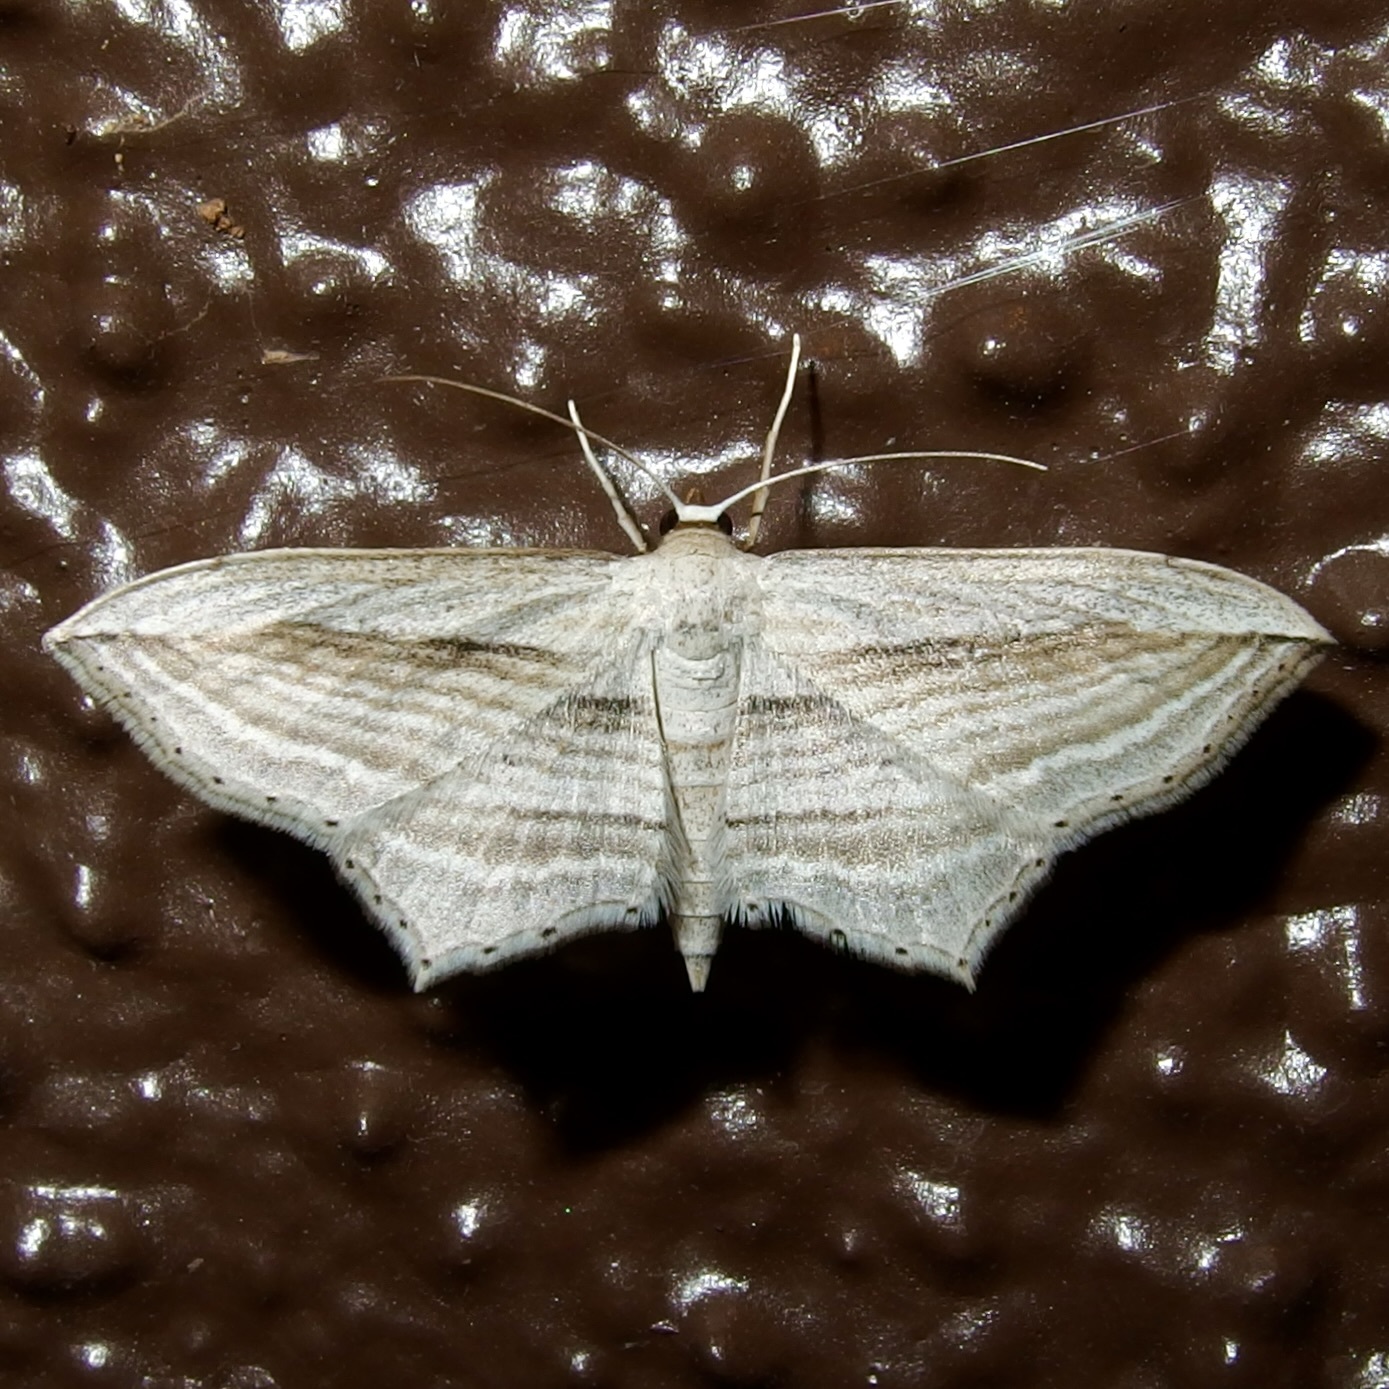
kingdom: Animalia
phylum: Arthropoda
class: Insecta
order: Lepidoptera
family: Geometridae
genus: Arcobara
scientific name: Arcobara multilineata
